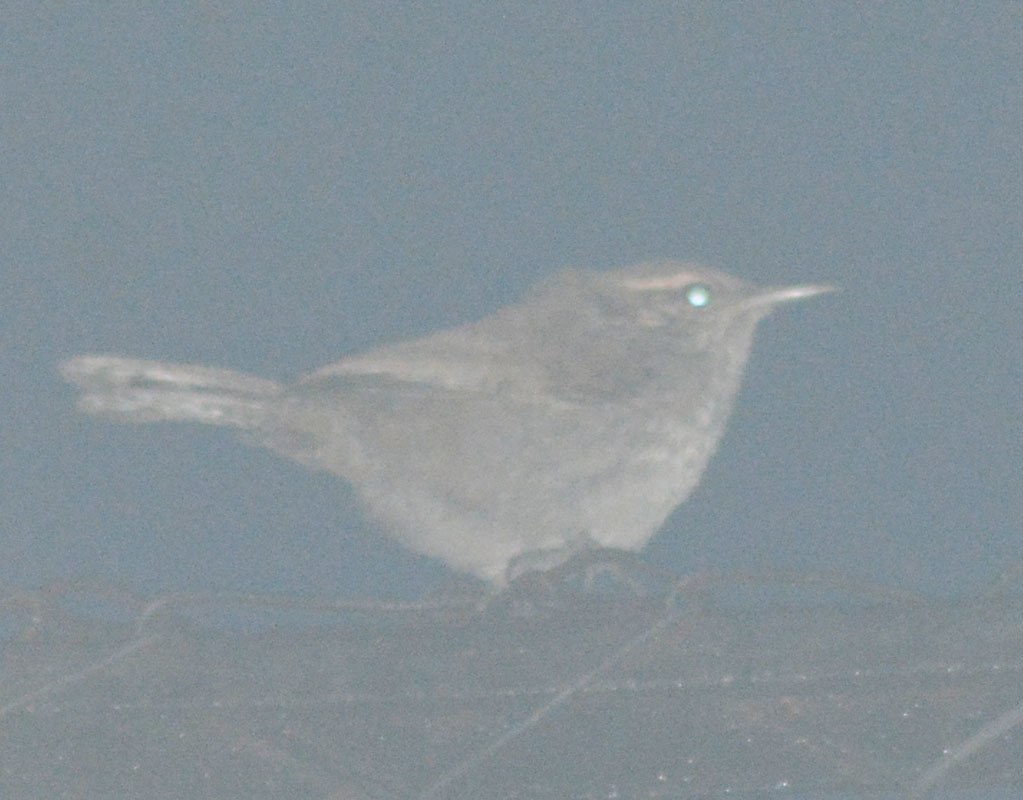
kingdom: Animalia
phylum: Chordata
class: Aves
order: Passeriformes
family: Troglodytidae
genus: Thryomanes
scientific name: Thryomanes bewickii
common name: Bewick's wren
